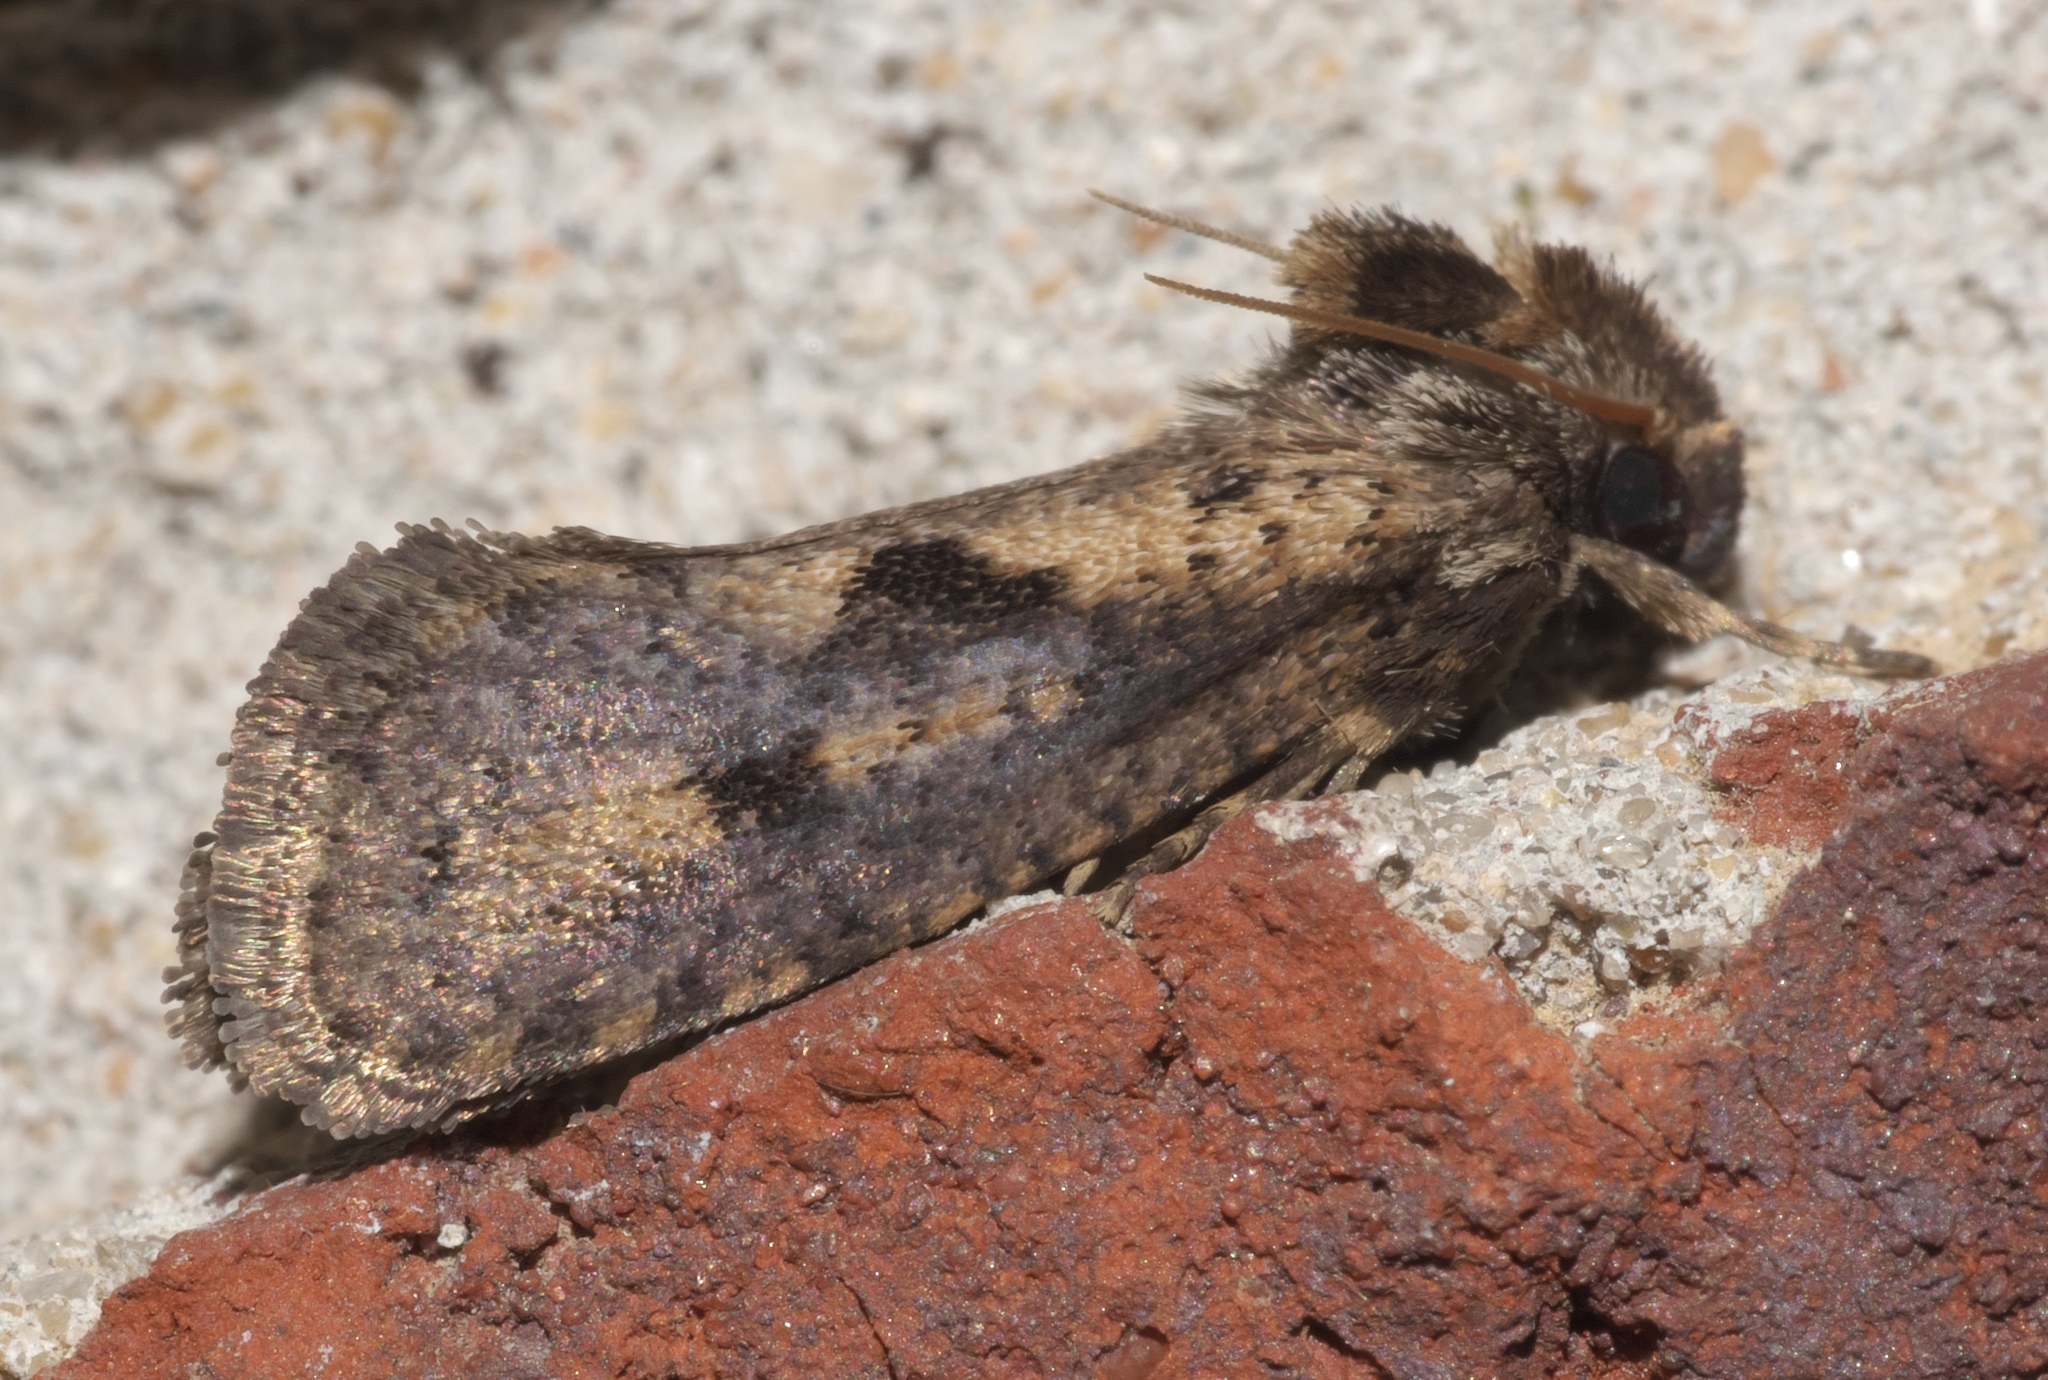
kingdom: Animalia
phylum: Arthropoda
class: Insecta
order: Lepidoptera
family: Tineidae
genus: Acrolophus
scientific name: Acrolophus popeanella
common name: Clemens' grass tubeworm moth
